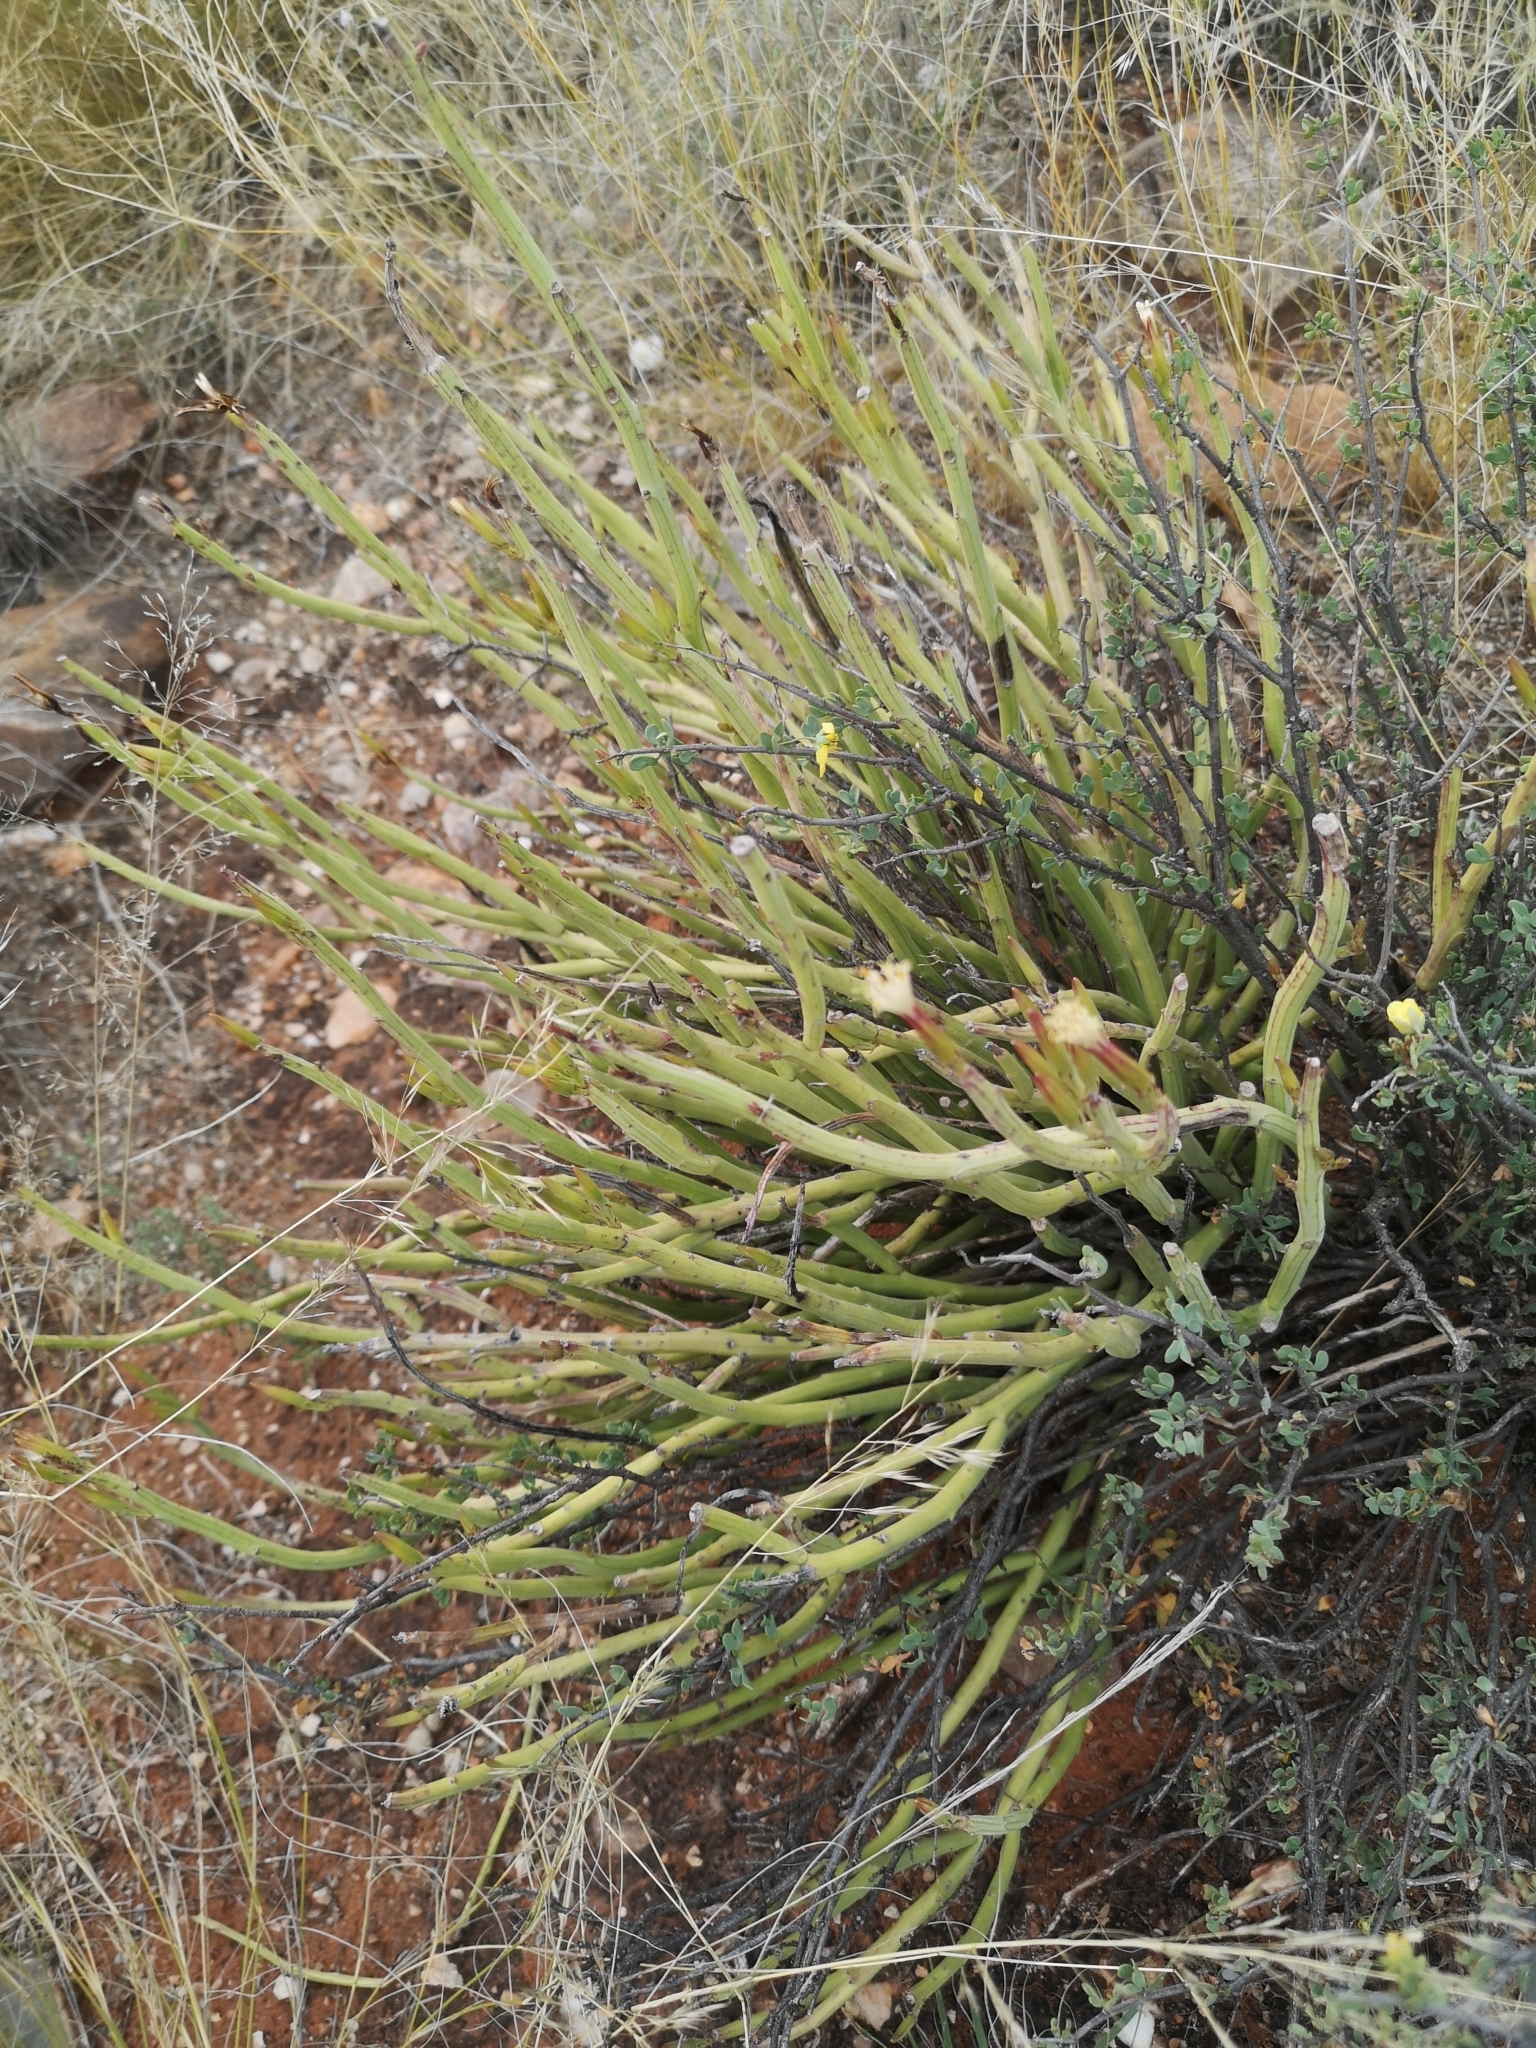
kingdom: Plantae
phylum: Tracheophyta
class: Magnoliopsida
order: Asterales
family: Asteraceae
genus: Curio
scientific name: Curio avasimontanus
